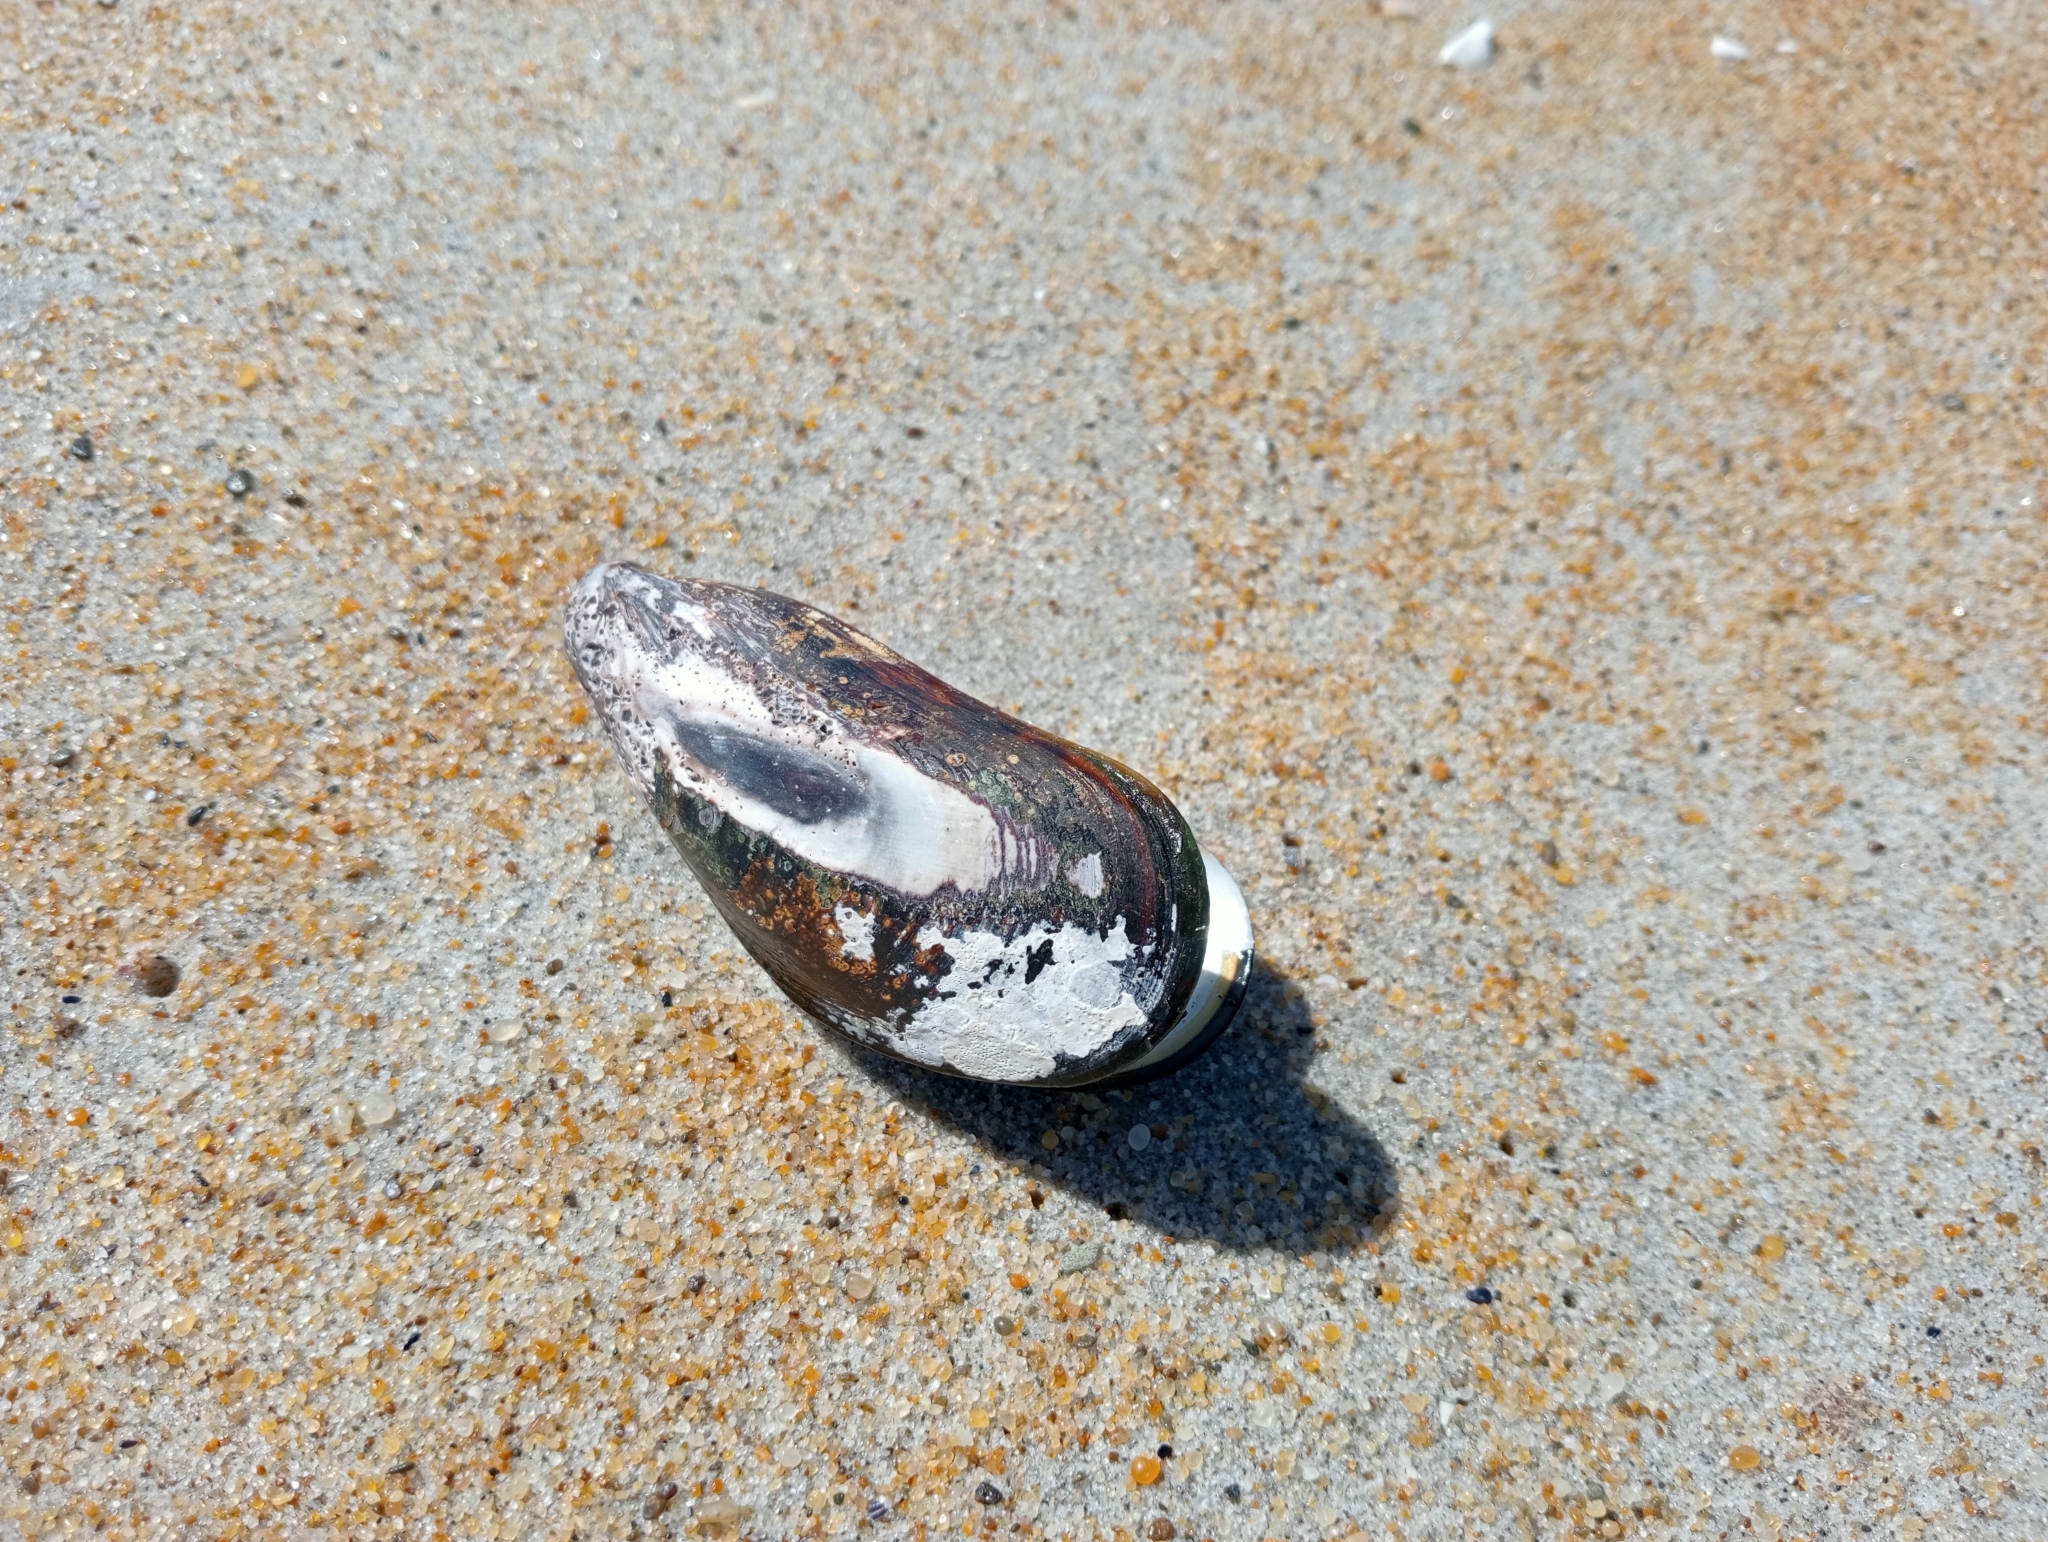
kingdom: Animalia
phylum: Mollusca
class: Bivalvia
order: Mytilida
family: Mytilidae
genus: Perna
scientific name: Perna canaliculus
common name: New zealand greenshelltm
